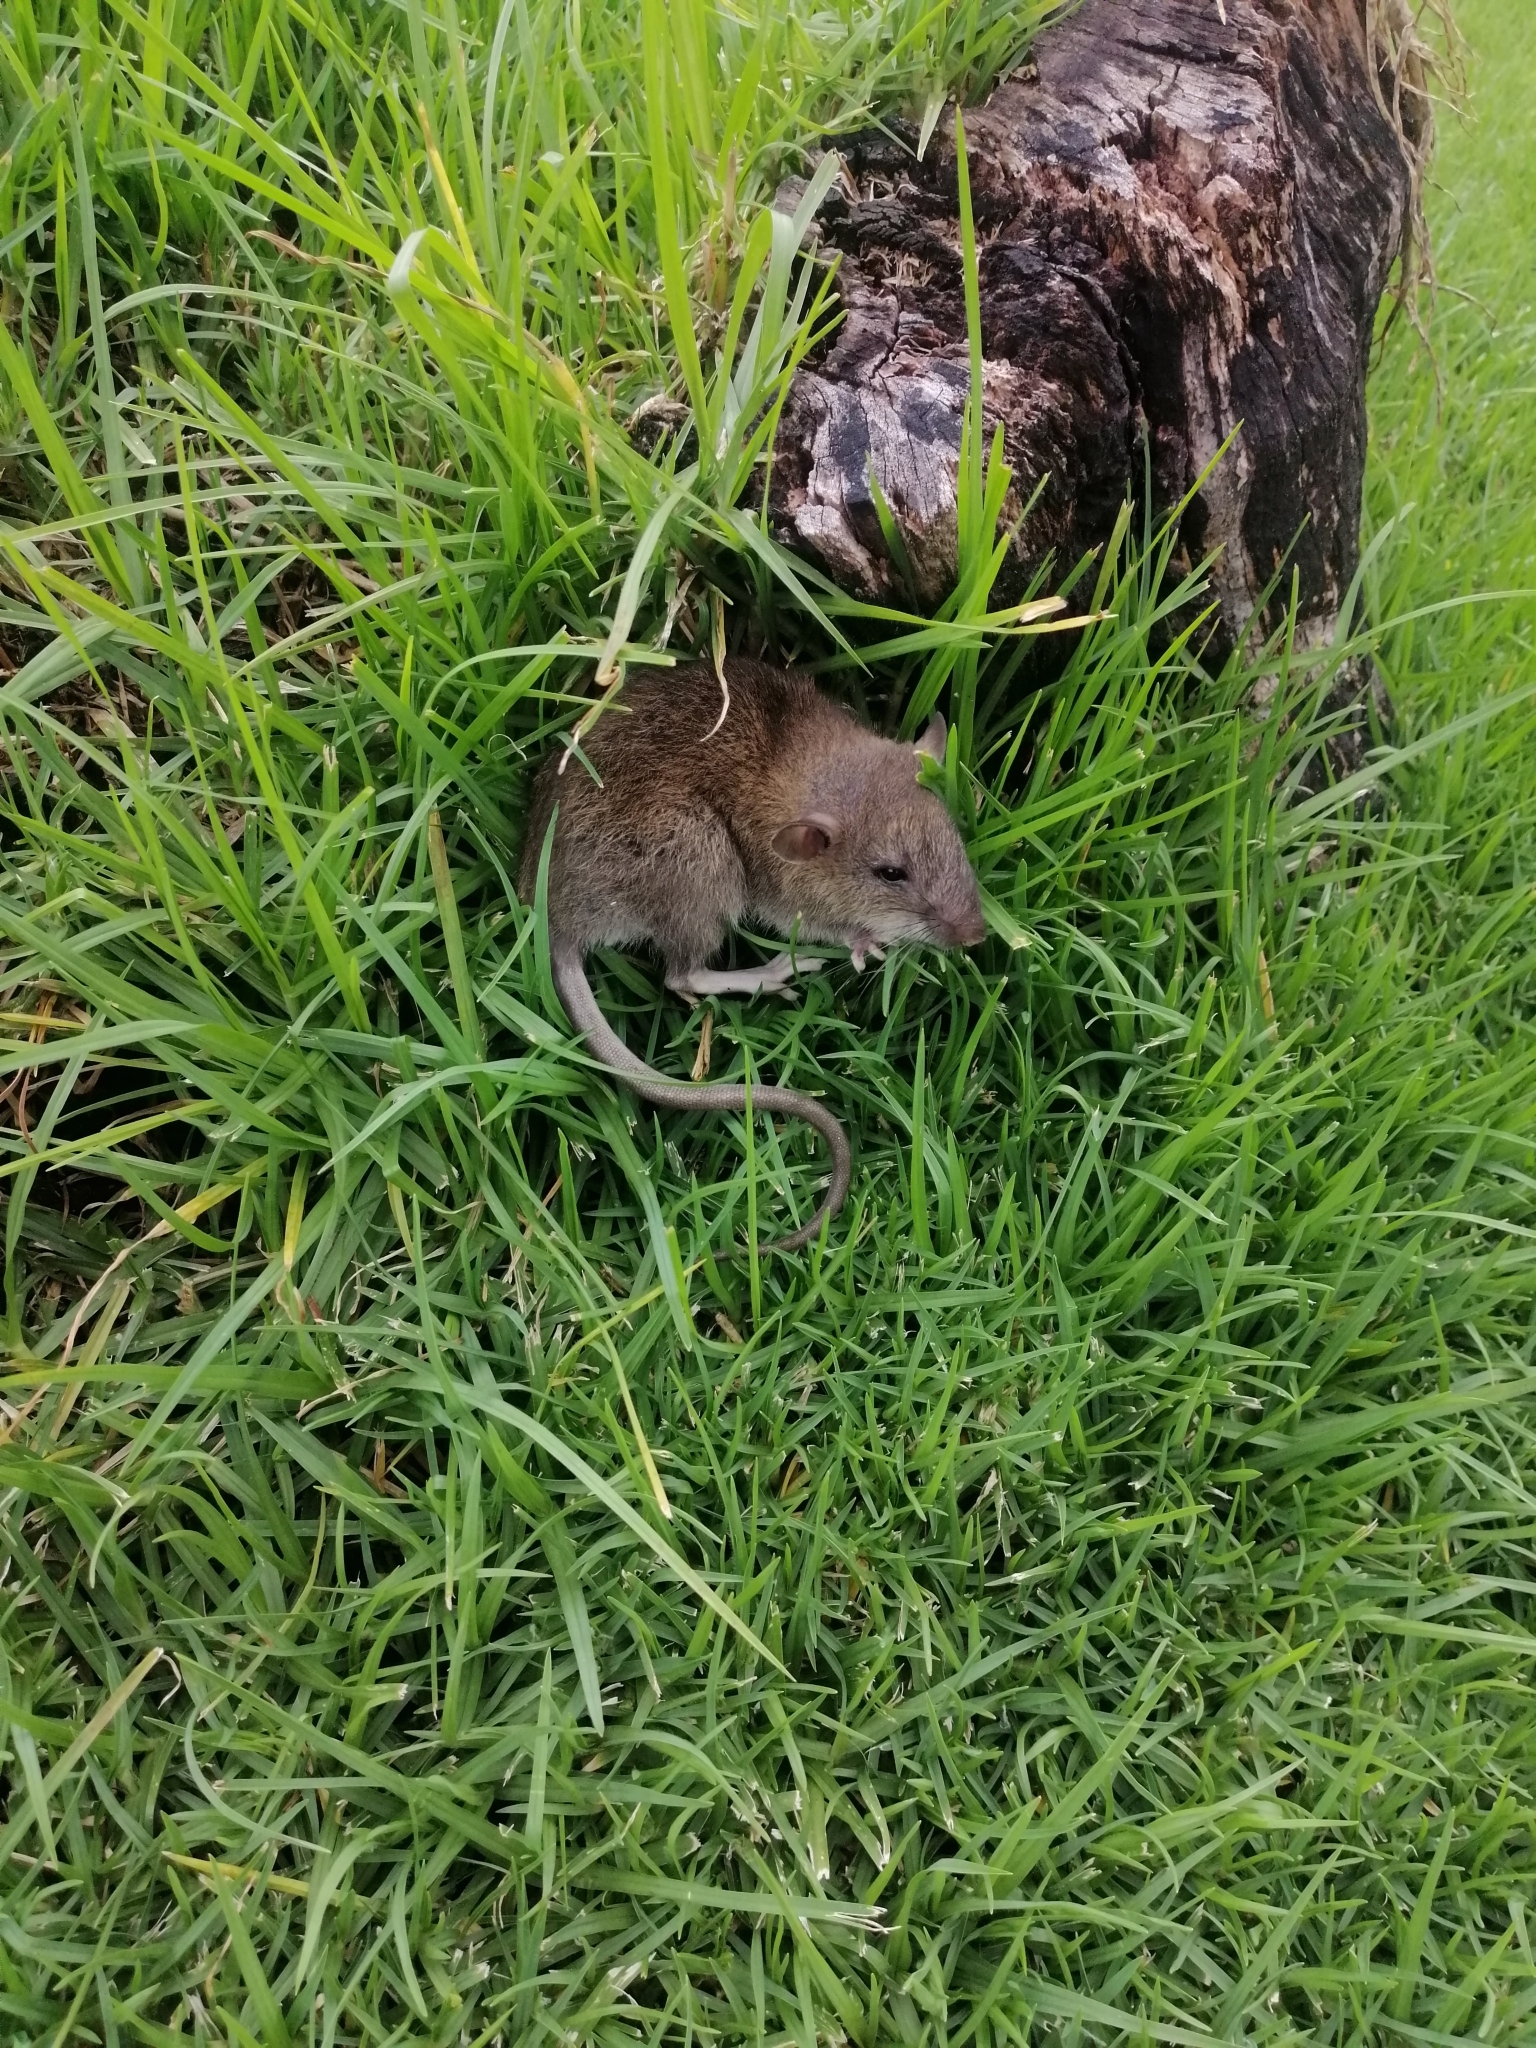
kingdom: Animalia
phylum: Chordata
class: Mammalia
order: Rodentia
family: Muridae
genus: Rattus
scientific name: Rattus rattus
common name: Black rat
